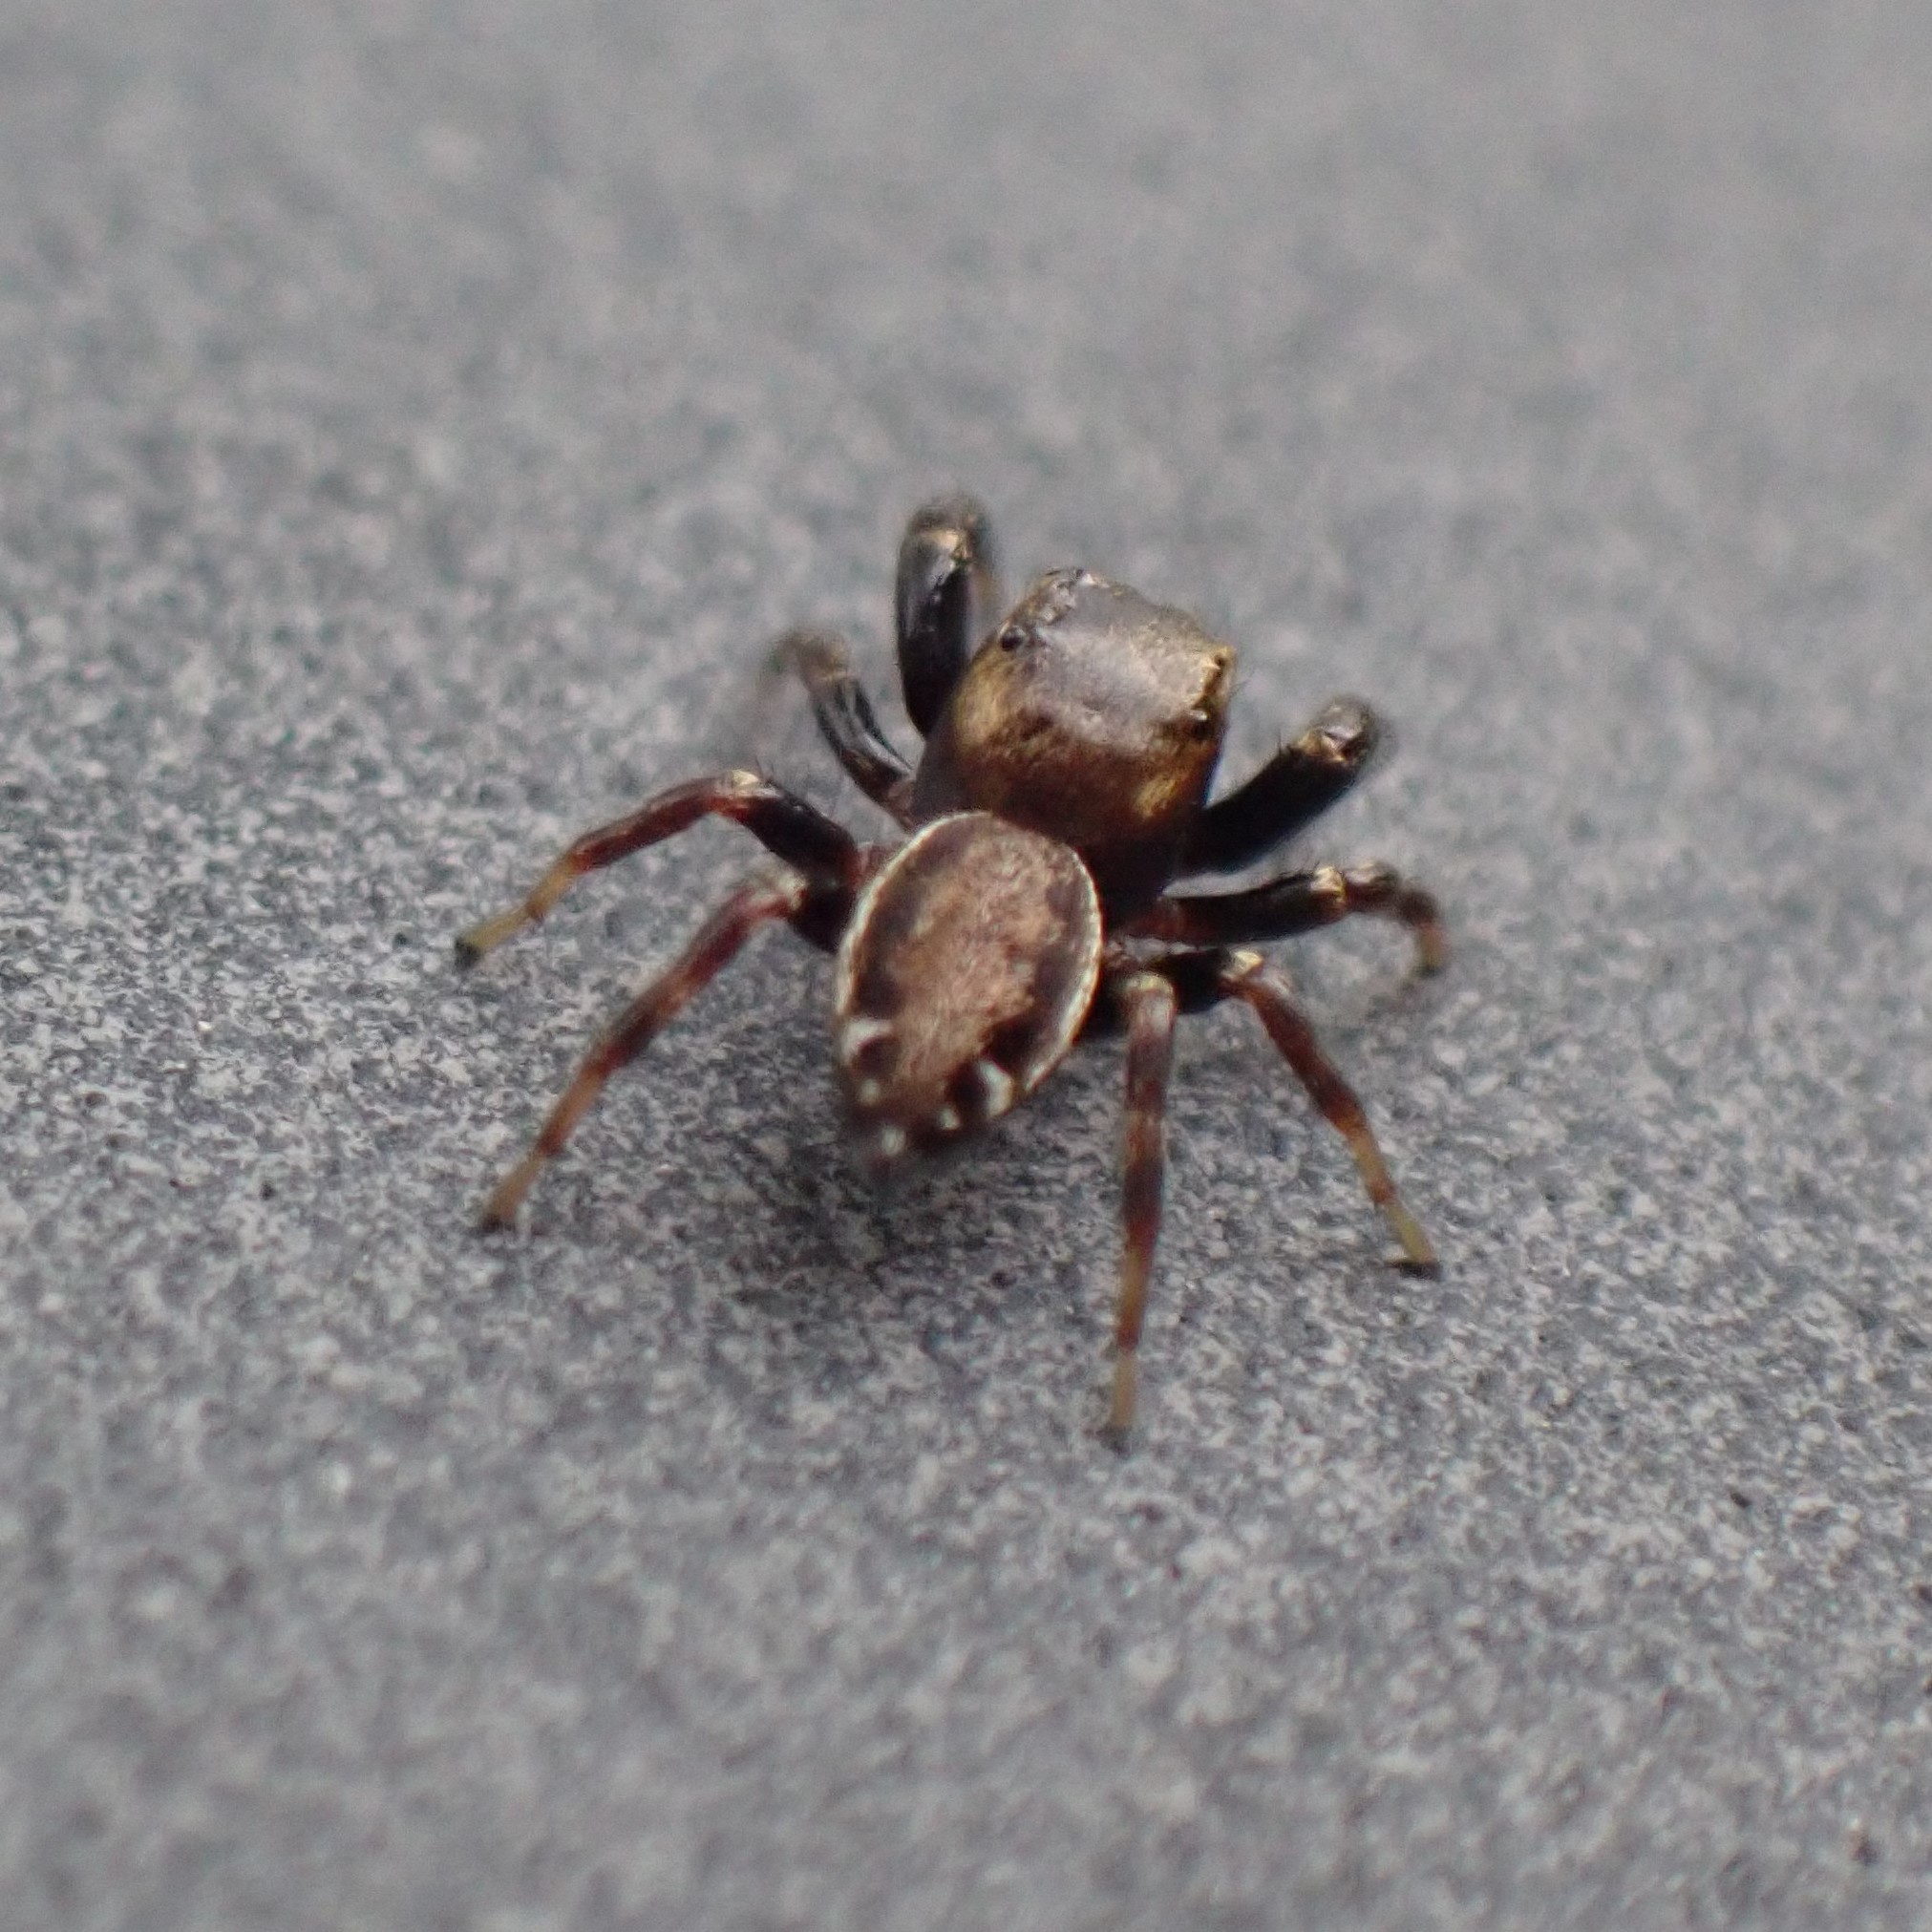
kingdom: Animalia
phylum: Arthropoda
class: Arachnida
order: Araneae
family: Salticidae
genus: Metaphidippus
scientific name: Metaphidippus manni
